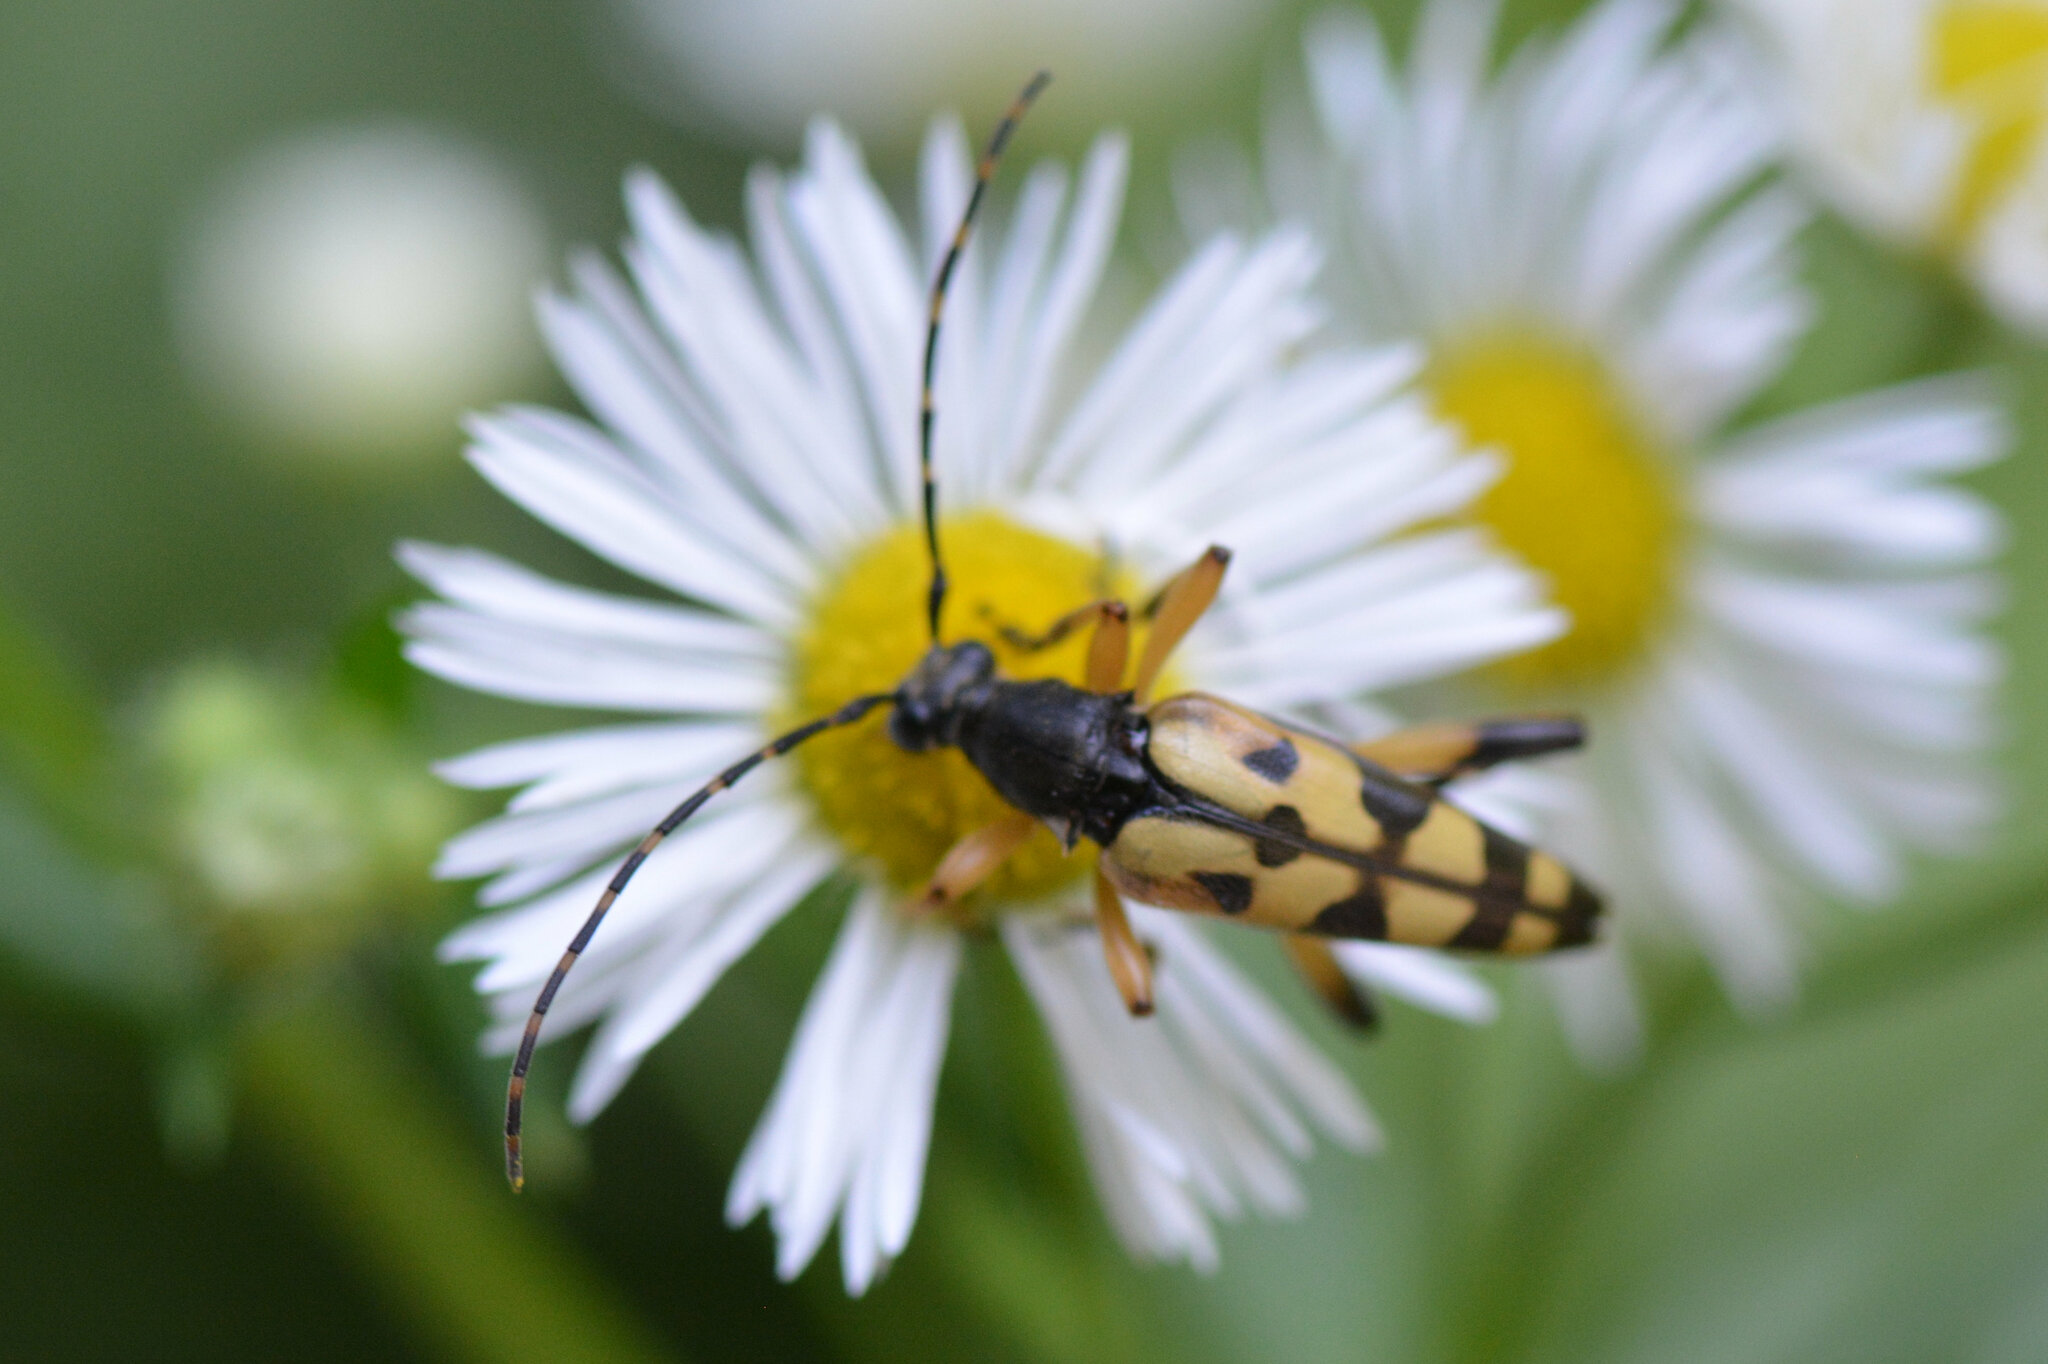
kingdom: Animalia
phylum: Arthropoda
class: Insecta
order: Coleoptera
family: Cerambycidae
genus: Rutpela
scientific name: Rutpela maculata
